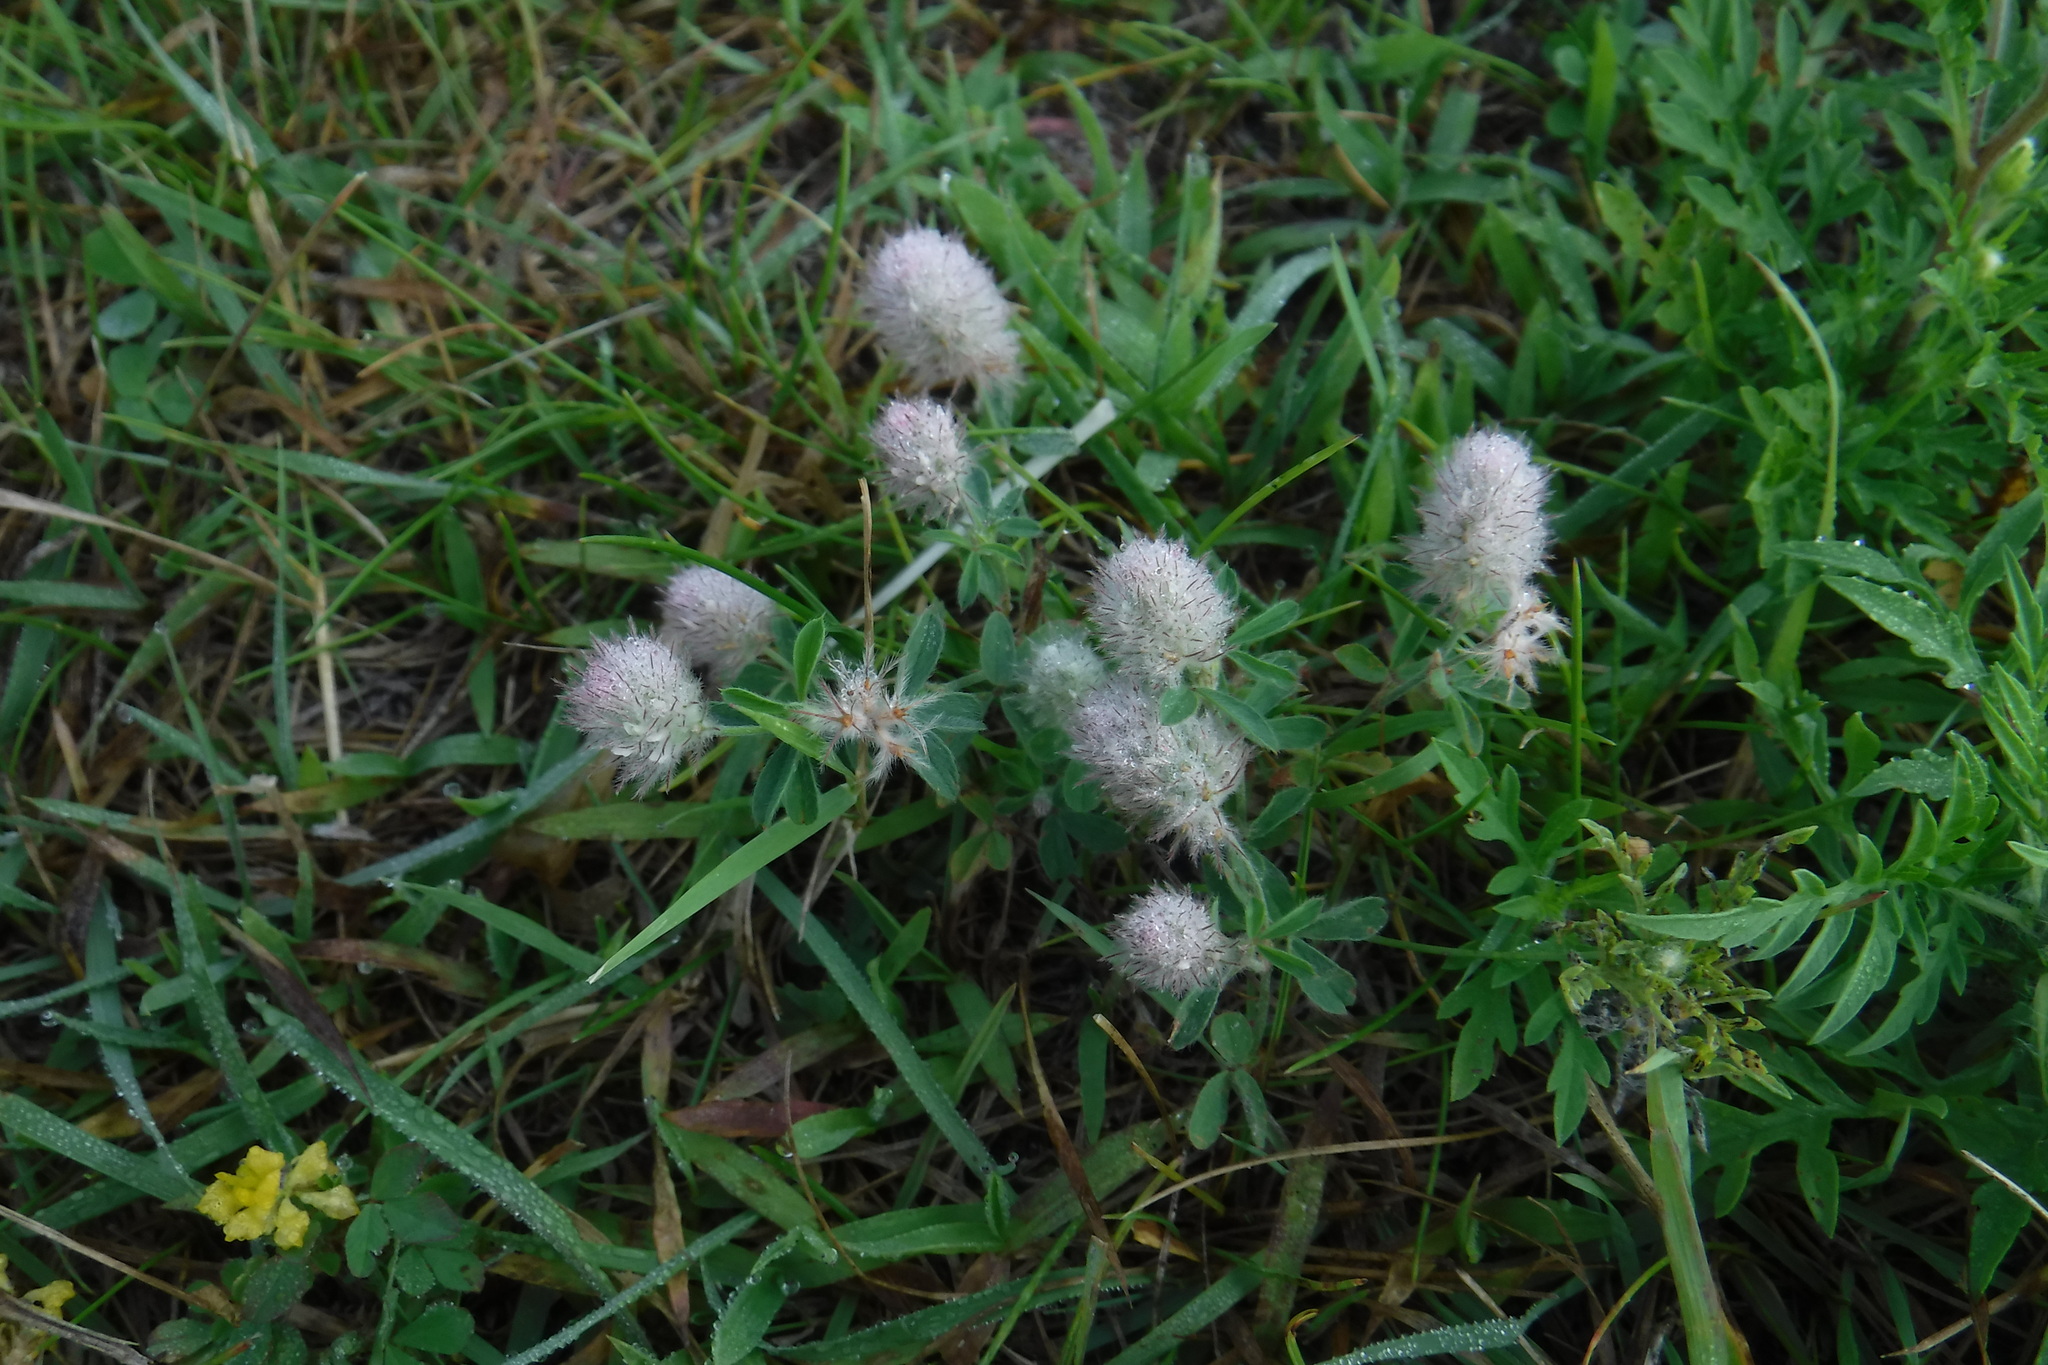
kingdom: Plantae
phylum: Tracheophyta
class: Magnoliopsida
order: Fabales
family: Fabaceae
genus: Trifolium
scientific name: Trifolium arvense
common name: Hare's-foot clover
